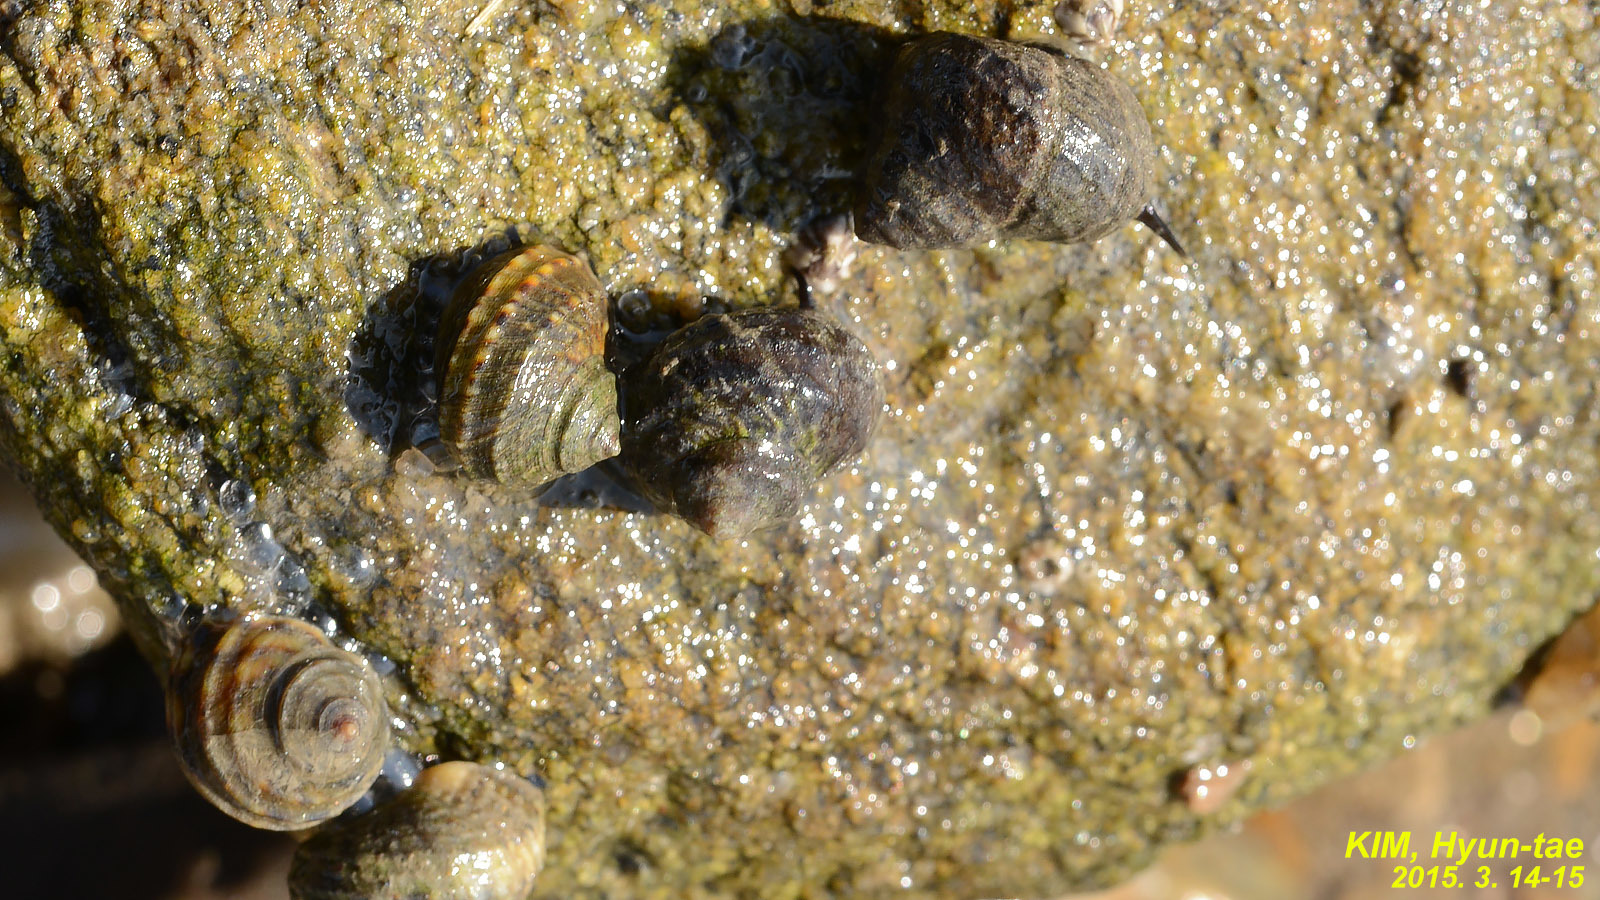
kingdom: Animalia
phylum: Mollusca
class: Gastropoda
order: Littorinimorpha
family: Littorinidae
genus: Littorina
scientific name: Littorina brevicula
